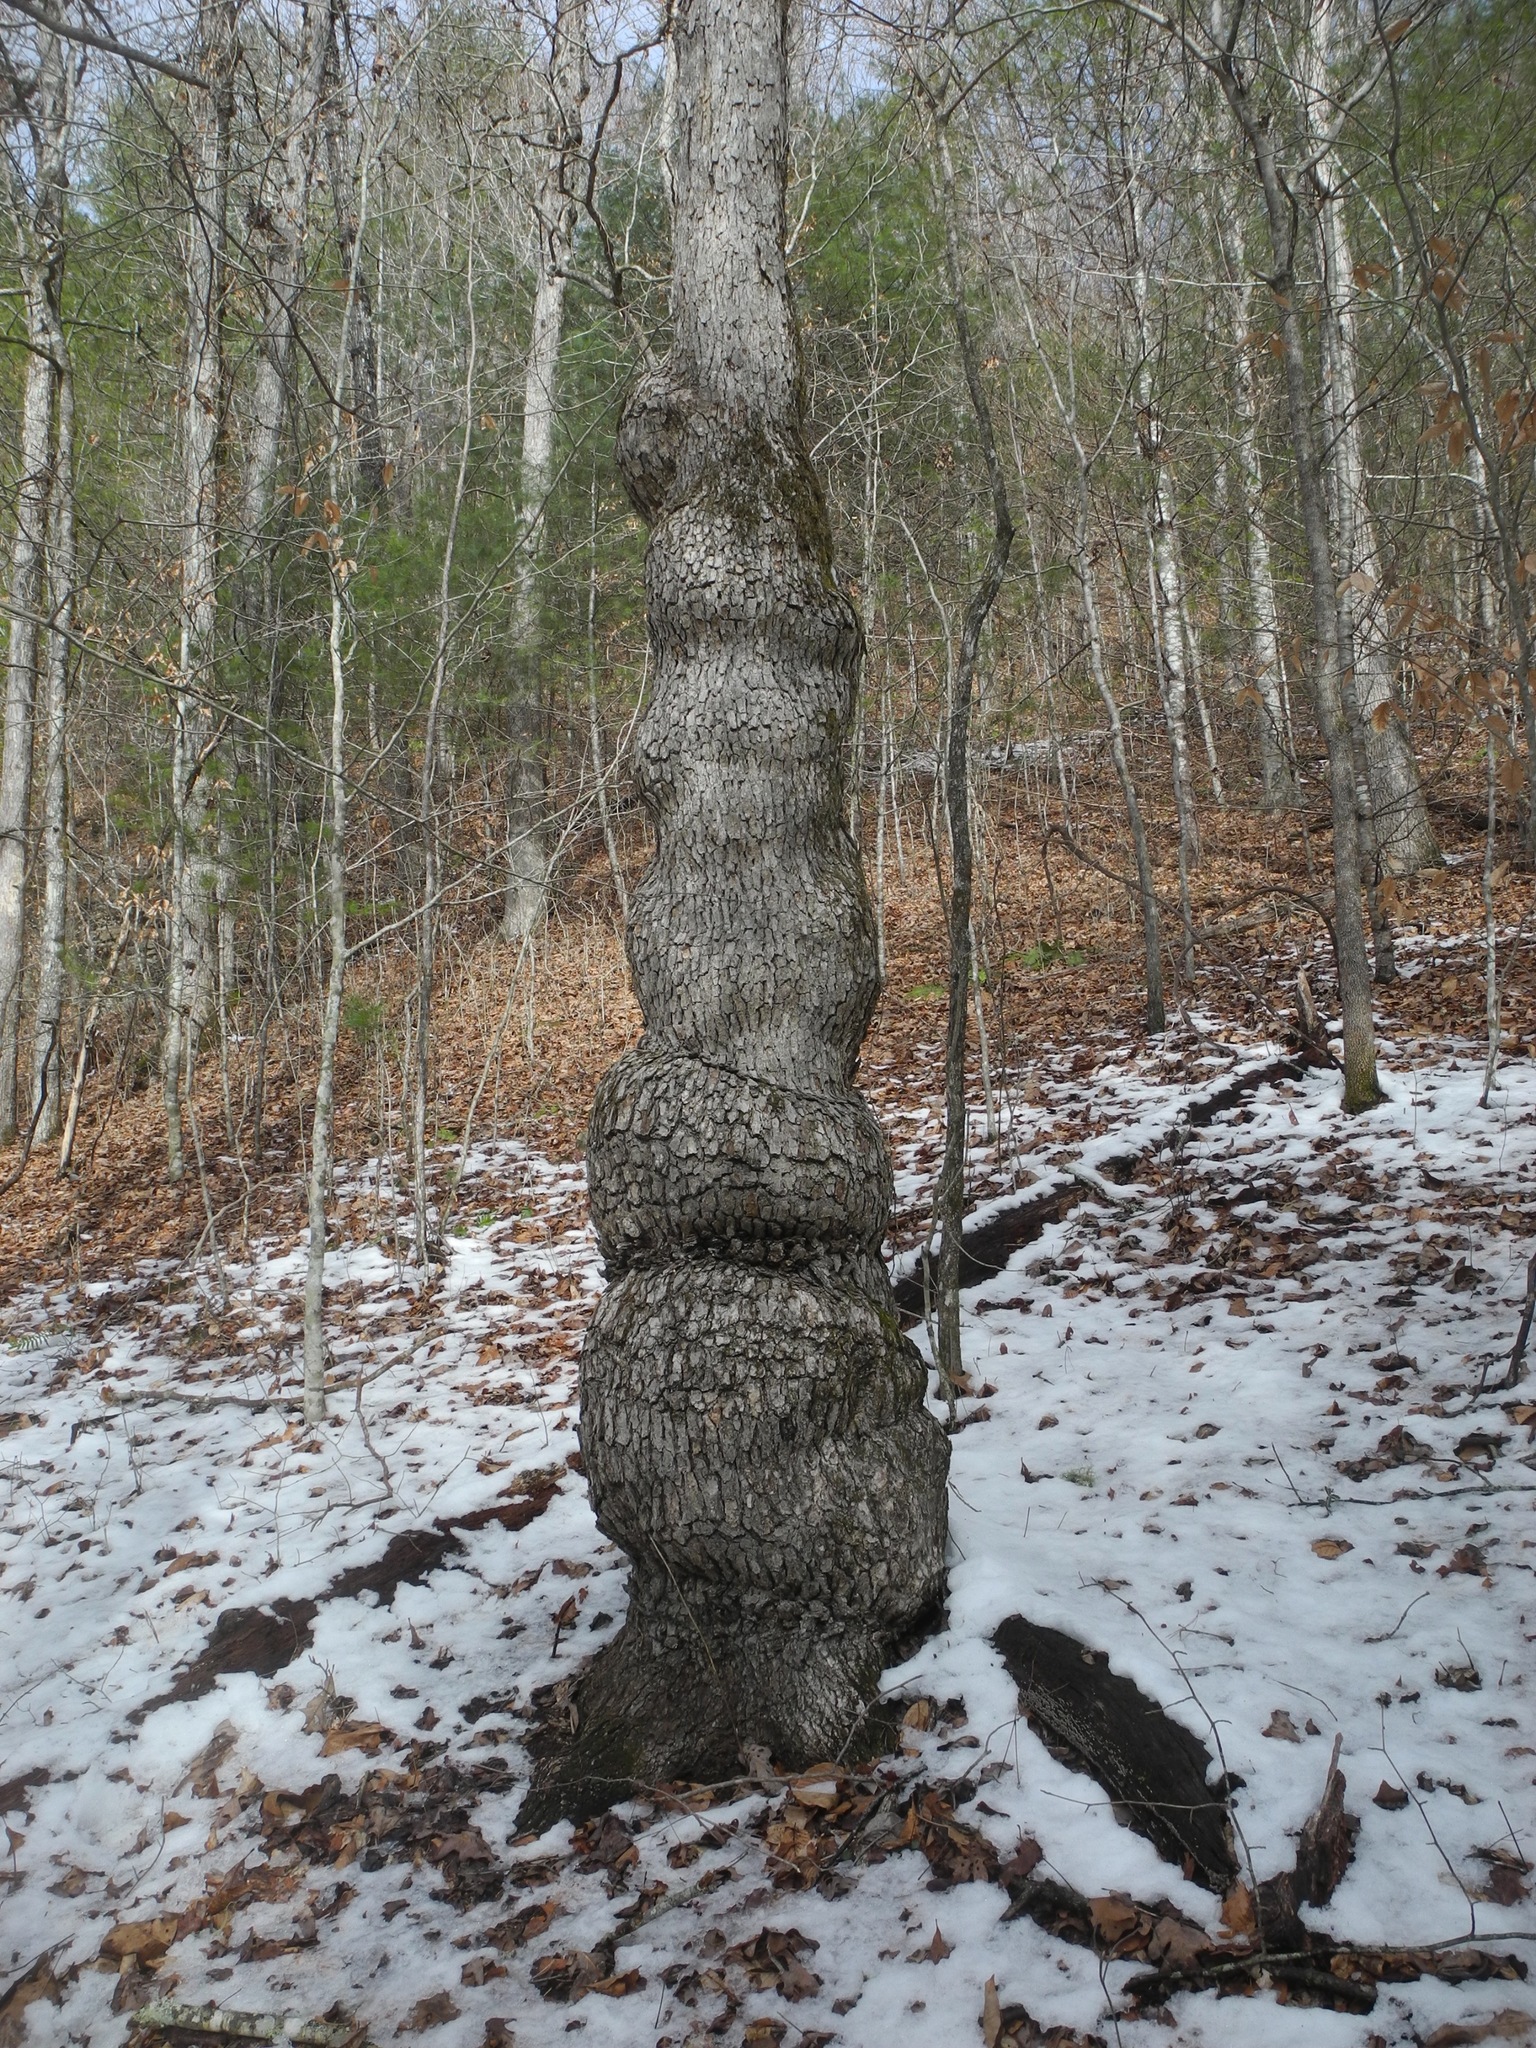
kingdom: Plantae
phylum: Tracheophyta
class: Magnoliopsida
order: Fagales
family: Fagaceae
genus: Quercus
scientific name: Quercus alba
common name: White oak
